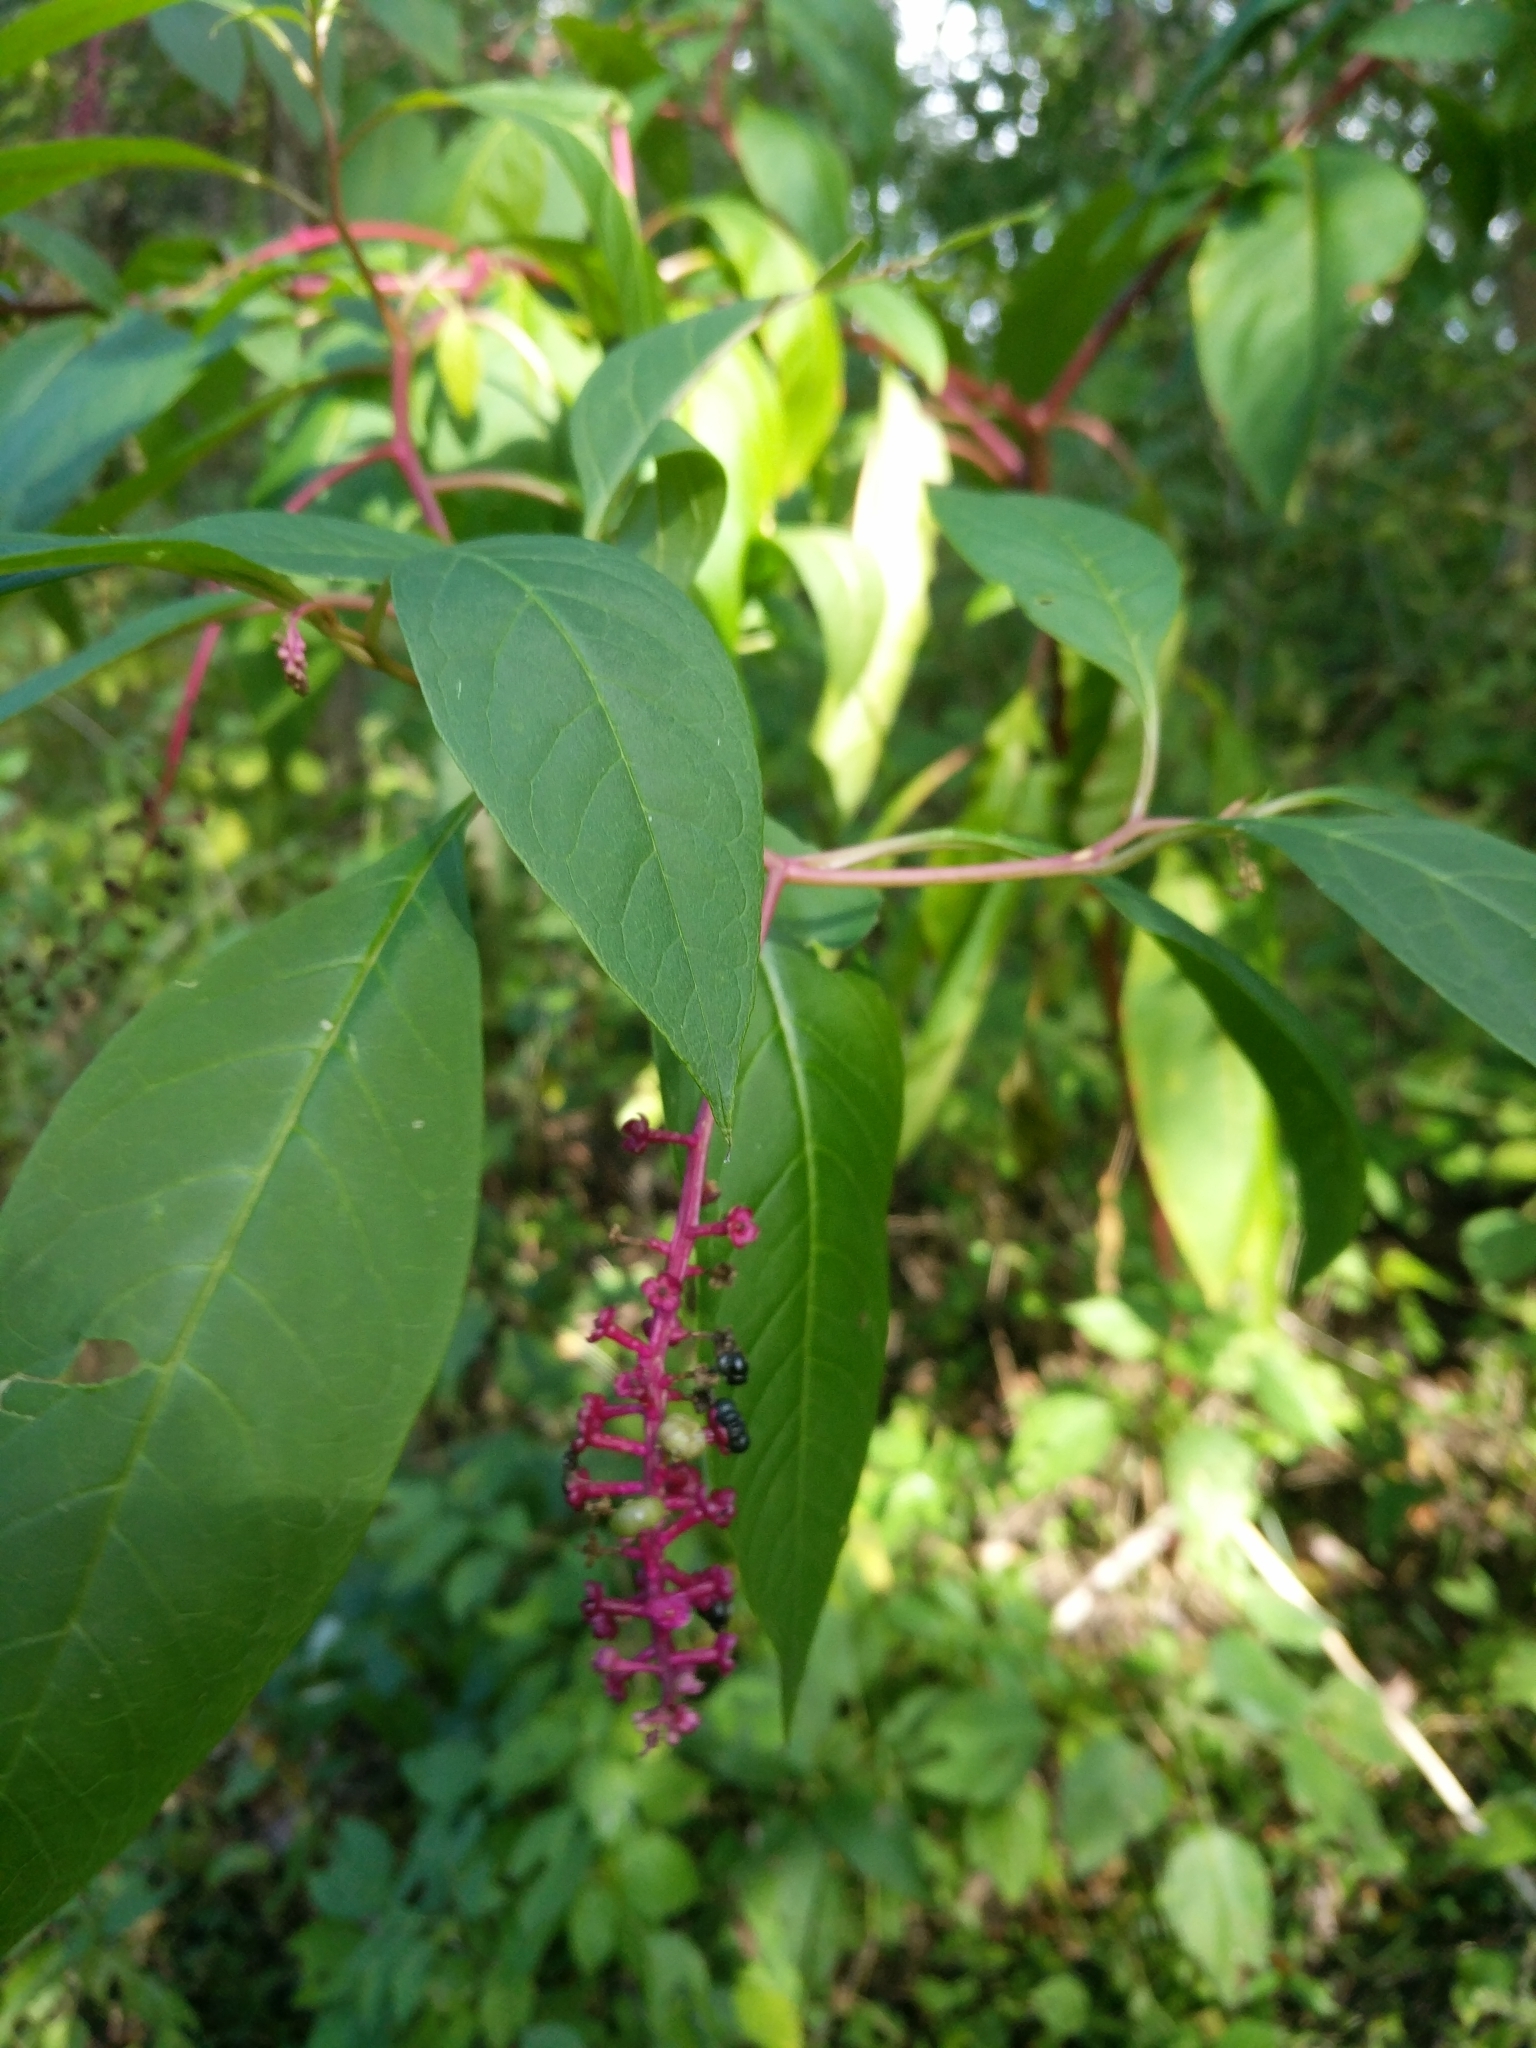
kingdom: Plantae
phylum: Tracheophyta
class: Magnoliopsida
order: Caryophyllales
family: Phytolaccaceae
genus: Phytolacca
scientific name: Phytolacca americana
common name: American pokeweed
